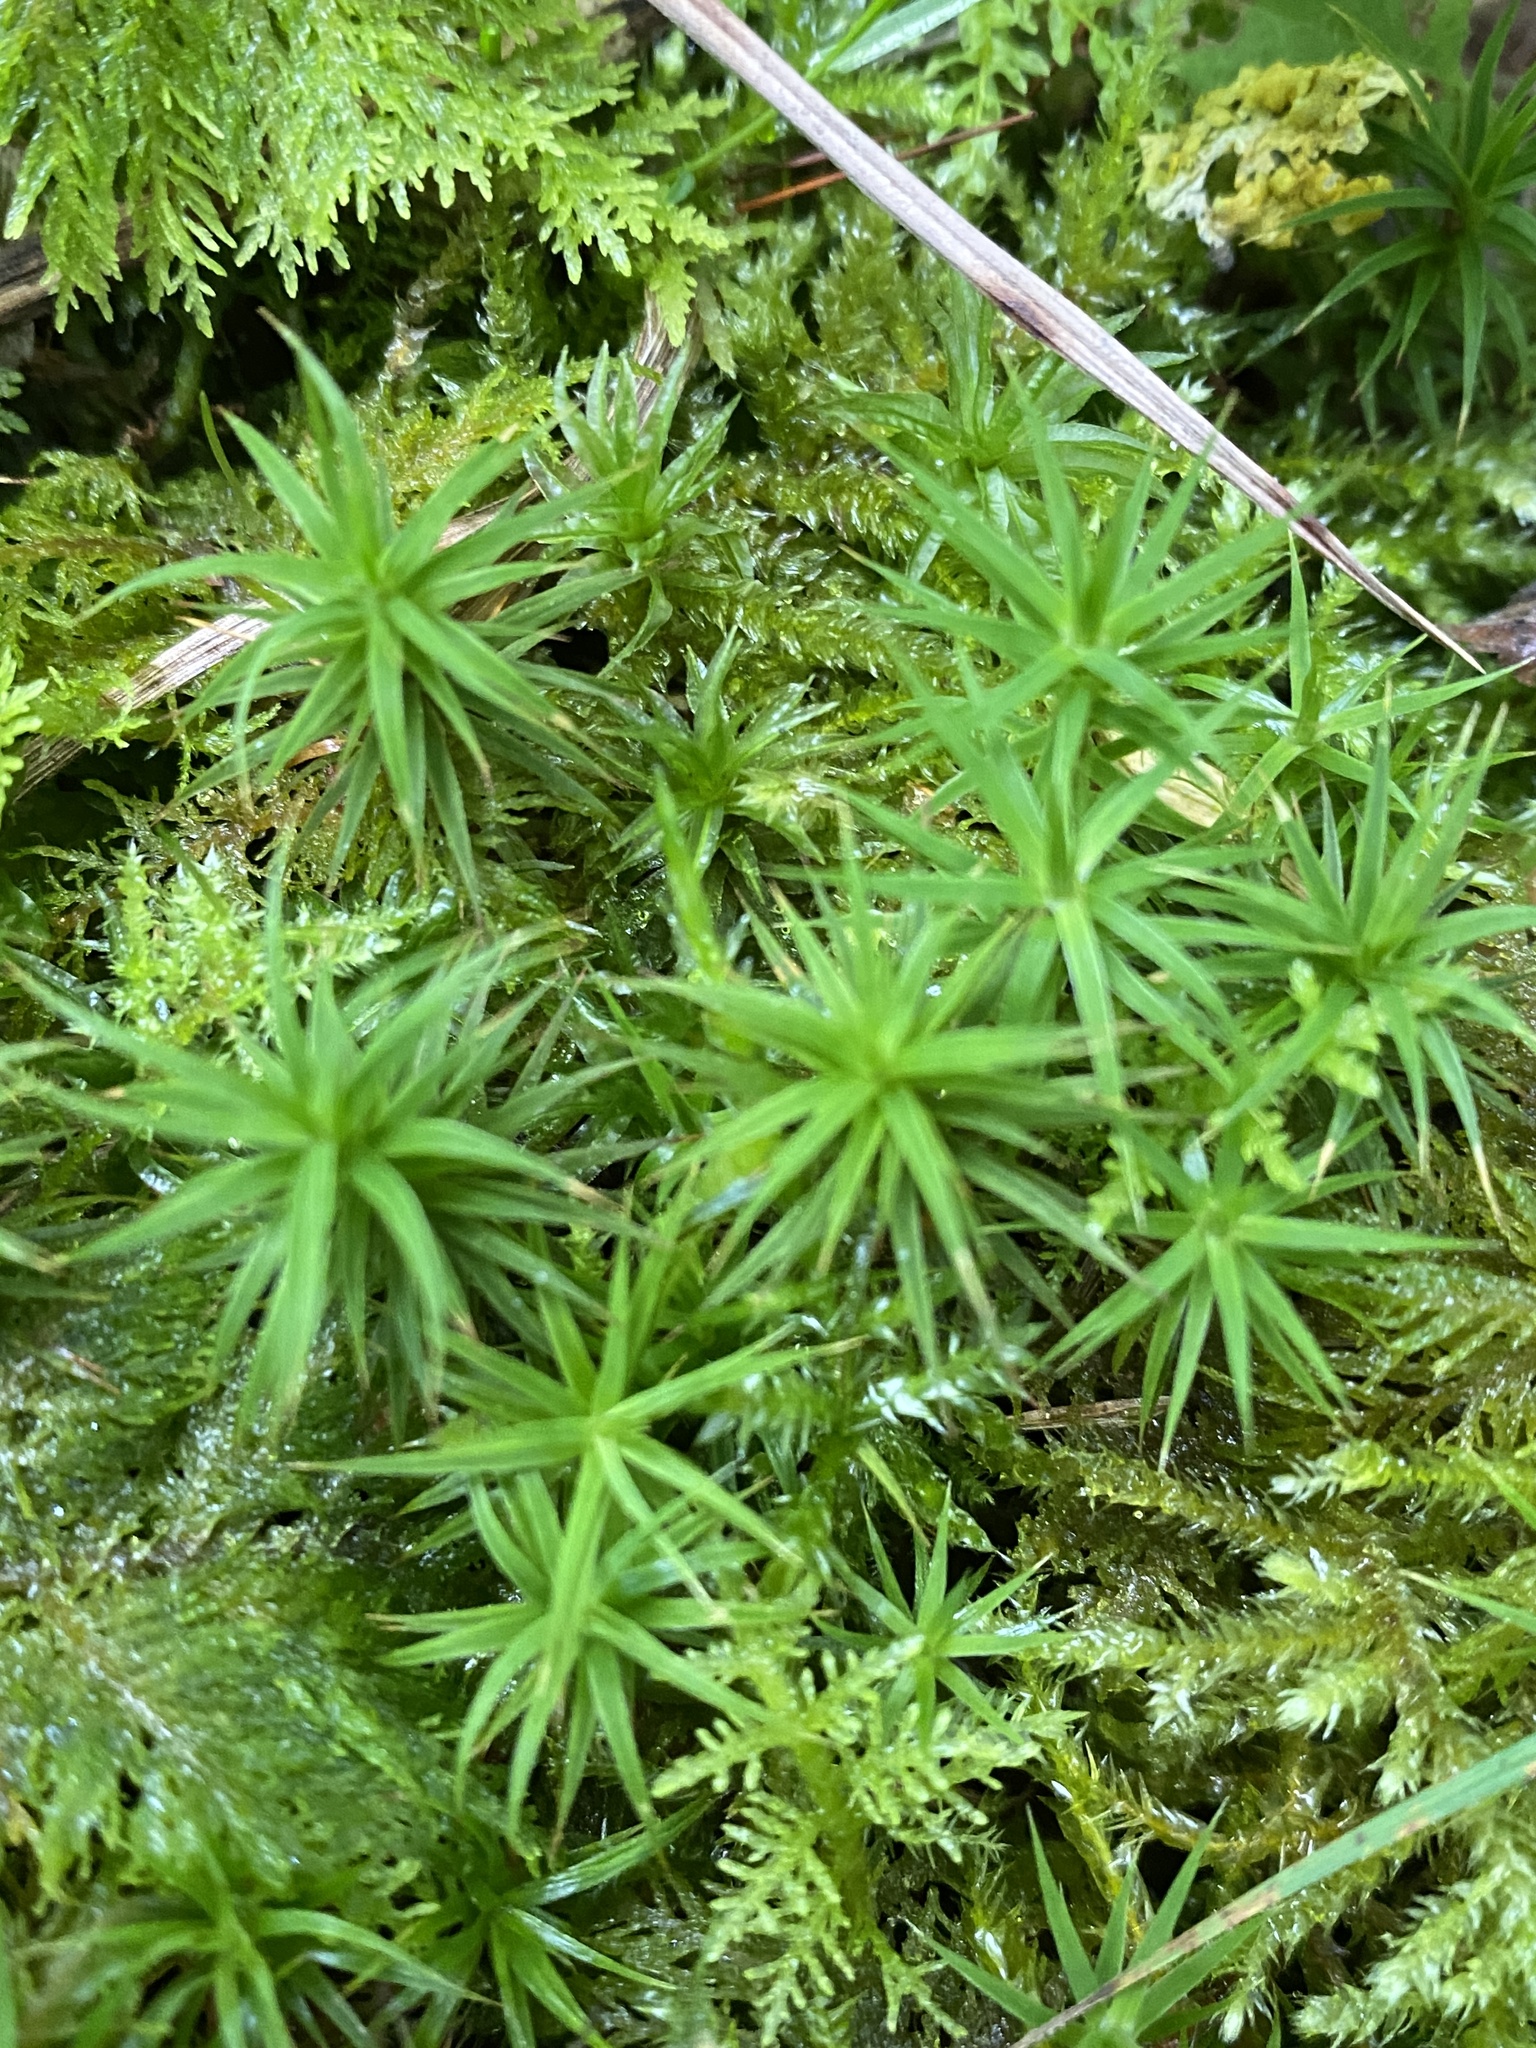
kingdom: Plantae
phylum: Bryophyta
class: Polytrichopsida
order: Polytrichales
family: Polytrichaceae
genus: Polytrichum
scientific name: Polytrichum formosum
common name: Bank haircap moss
